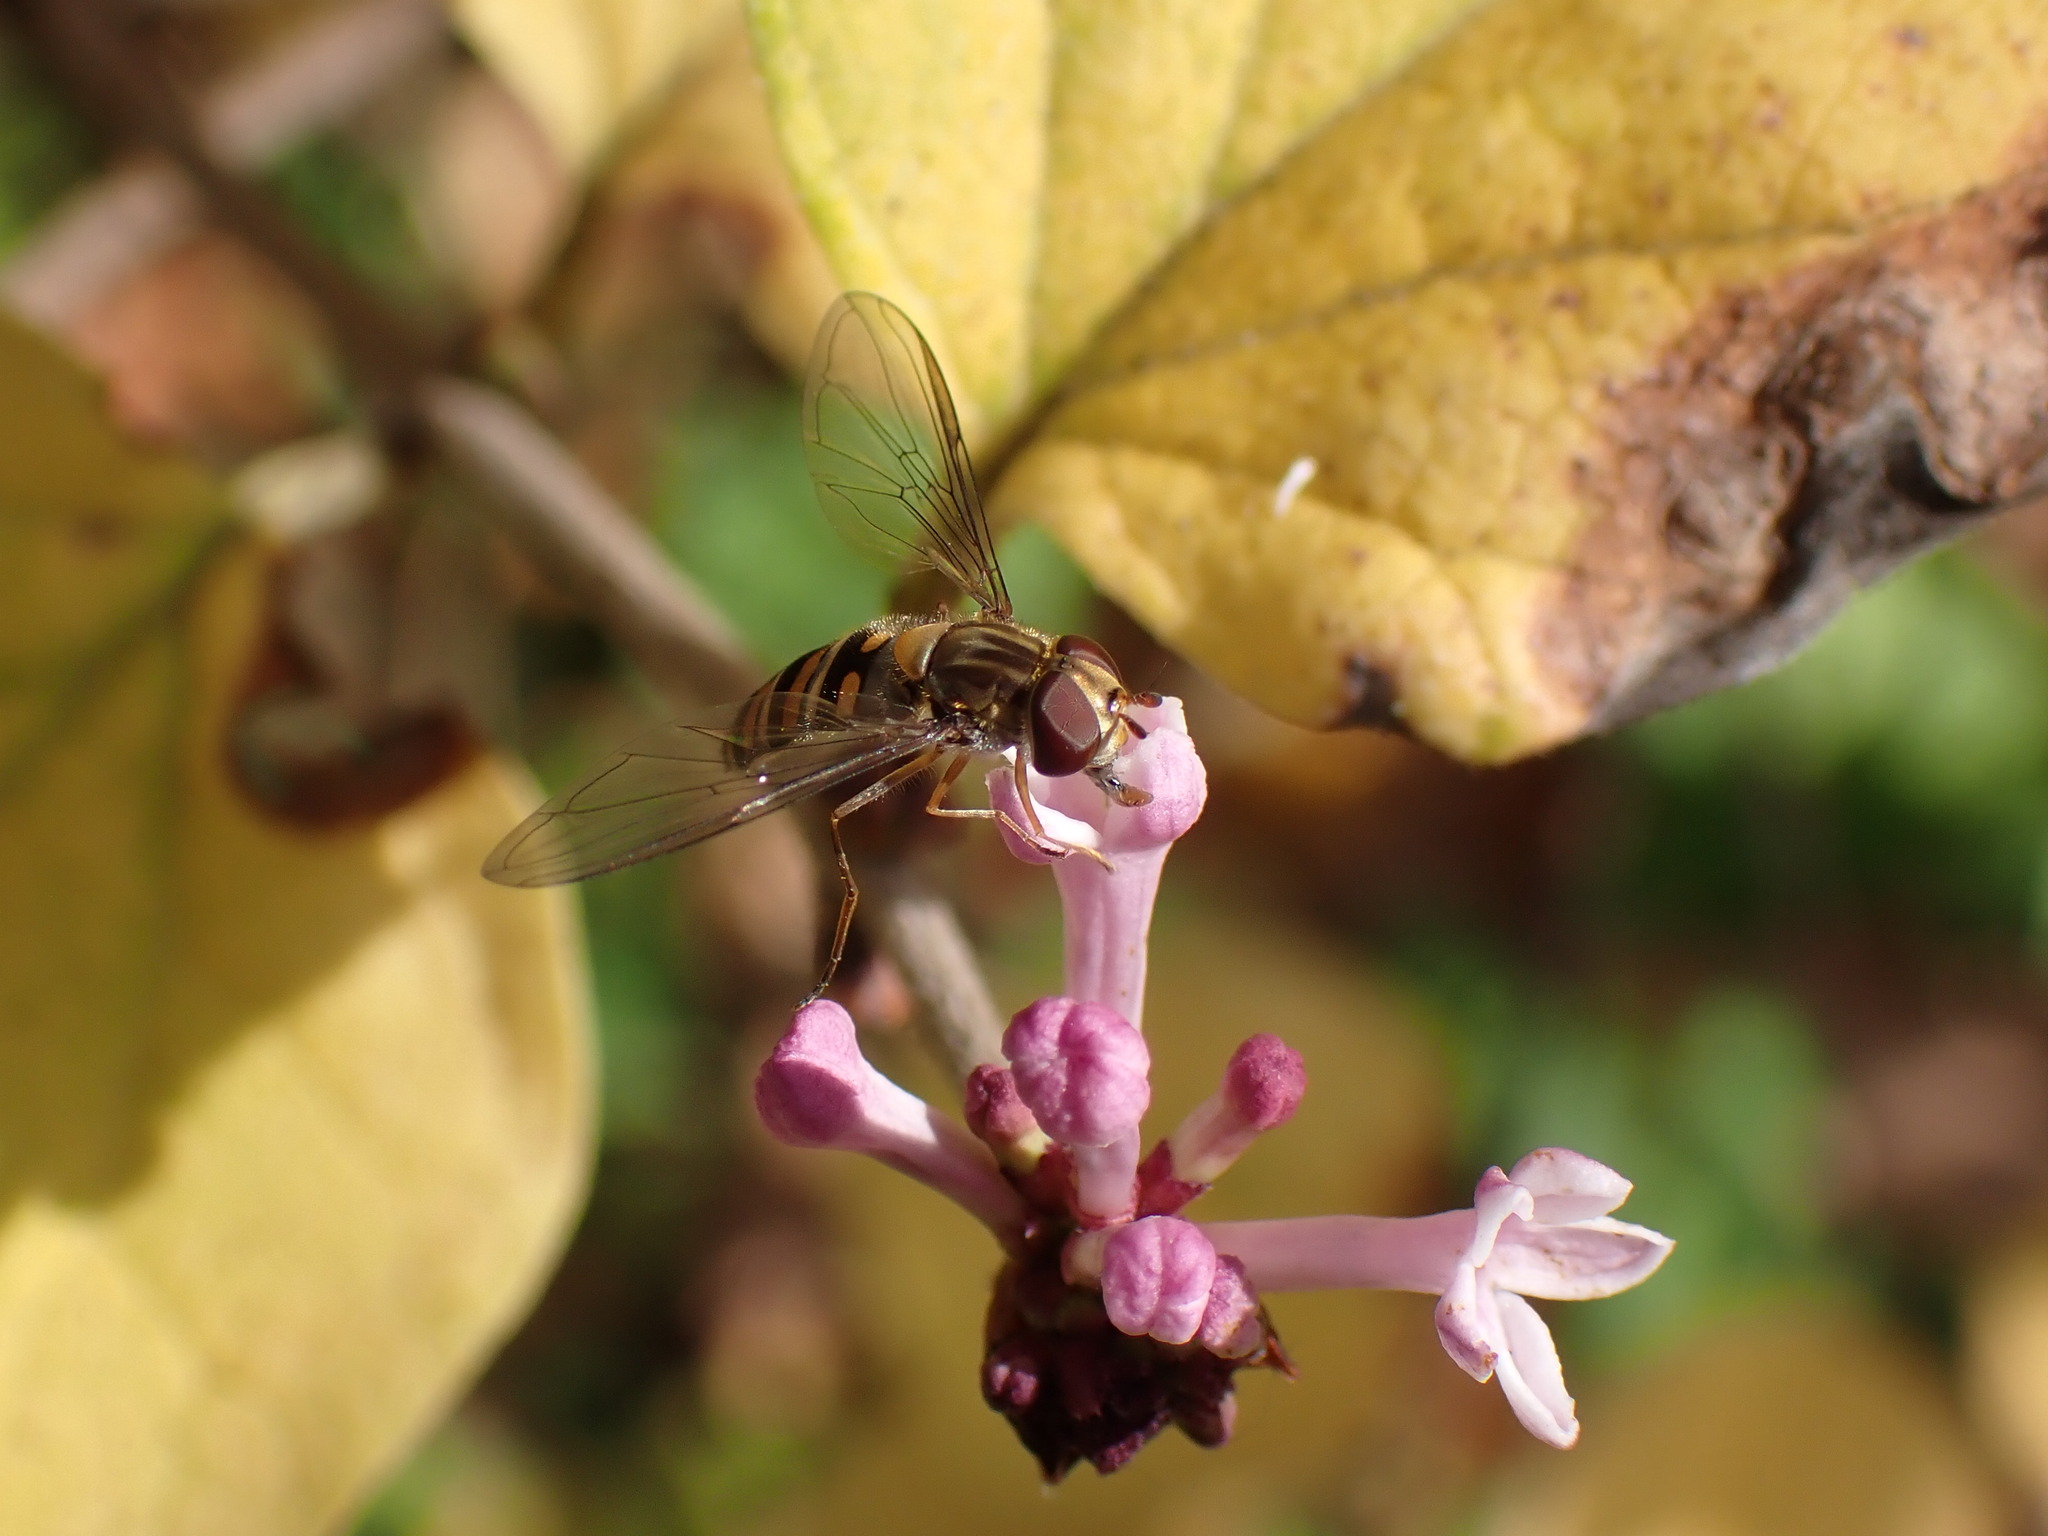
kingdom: Animalia
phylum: Arthropoda
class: Insecta
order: Diptera
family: Syrphidae
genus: Episyrphus
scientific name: Episyrphus balteatus
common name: Marmalade hoverfly
